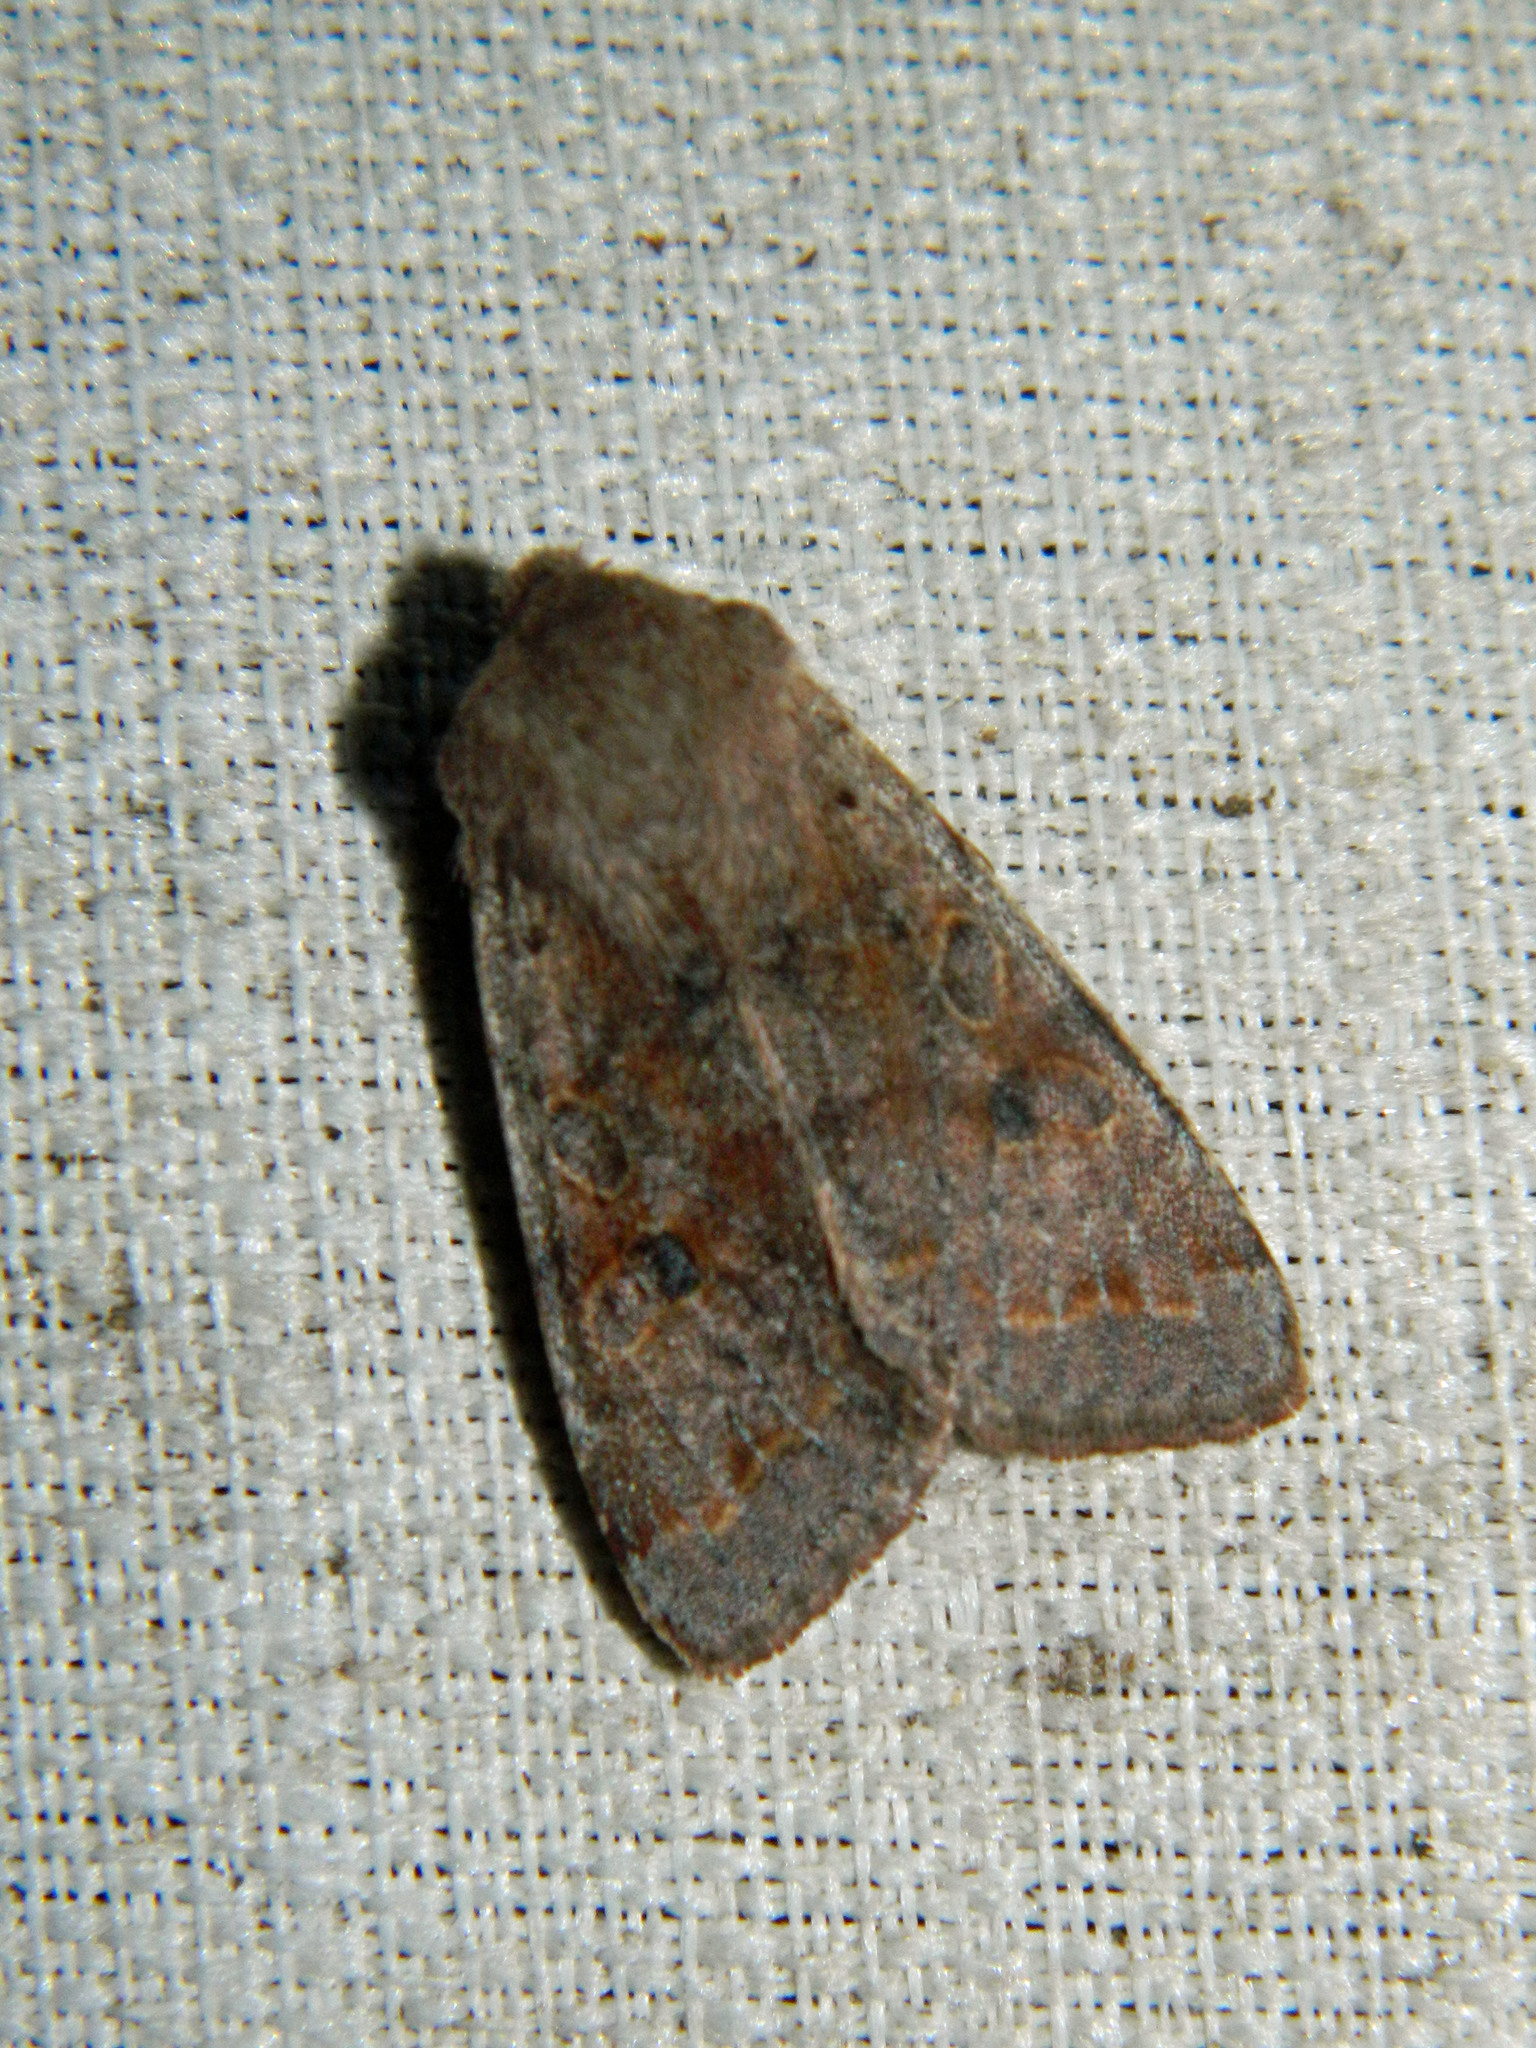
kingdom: Animalia
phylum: Arthropoda
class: Insecta
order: Lepidoptera
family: Noctuidae
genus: Orthosia
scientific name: Orthosia hibisci
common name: Green fruitworm
